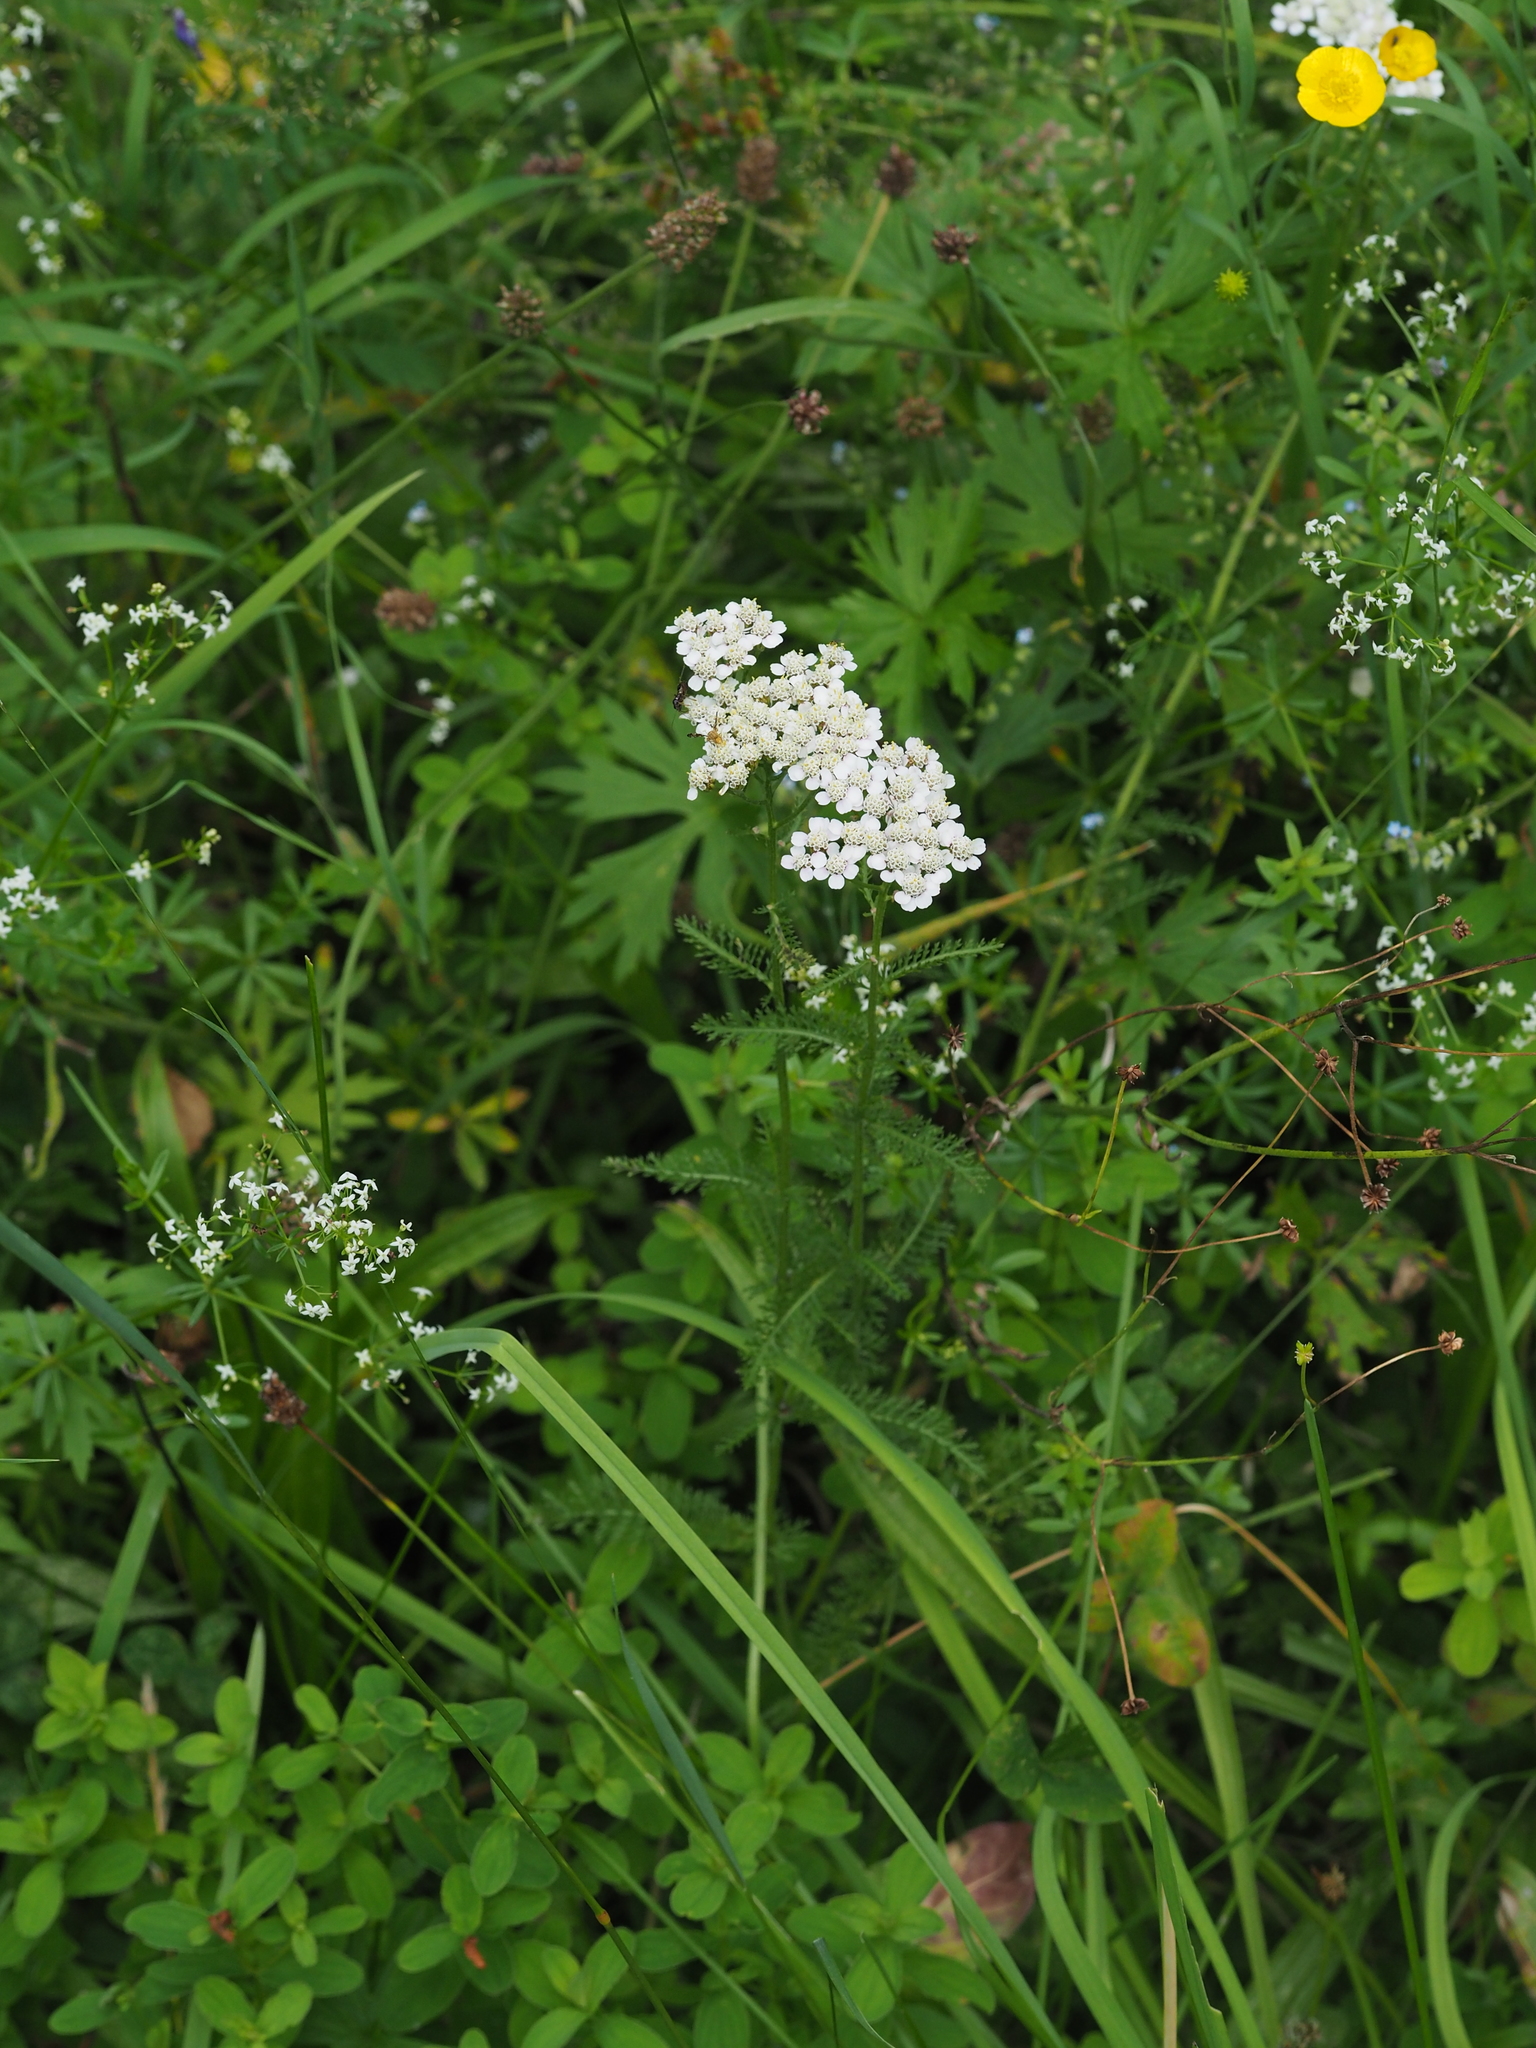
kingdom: Plantae
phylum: Tracheophyta
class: Magnoliopsida
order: Asterales
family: Asteraceae
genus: Achillea
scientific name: Achillea millefolium
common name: Yarrow
